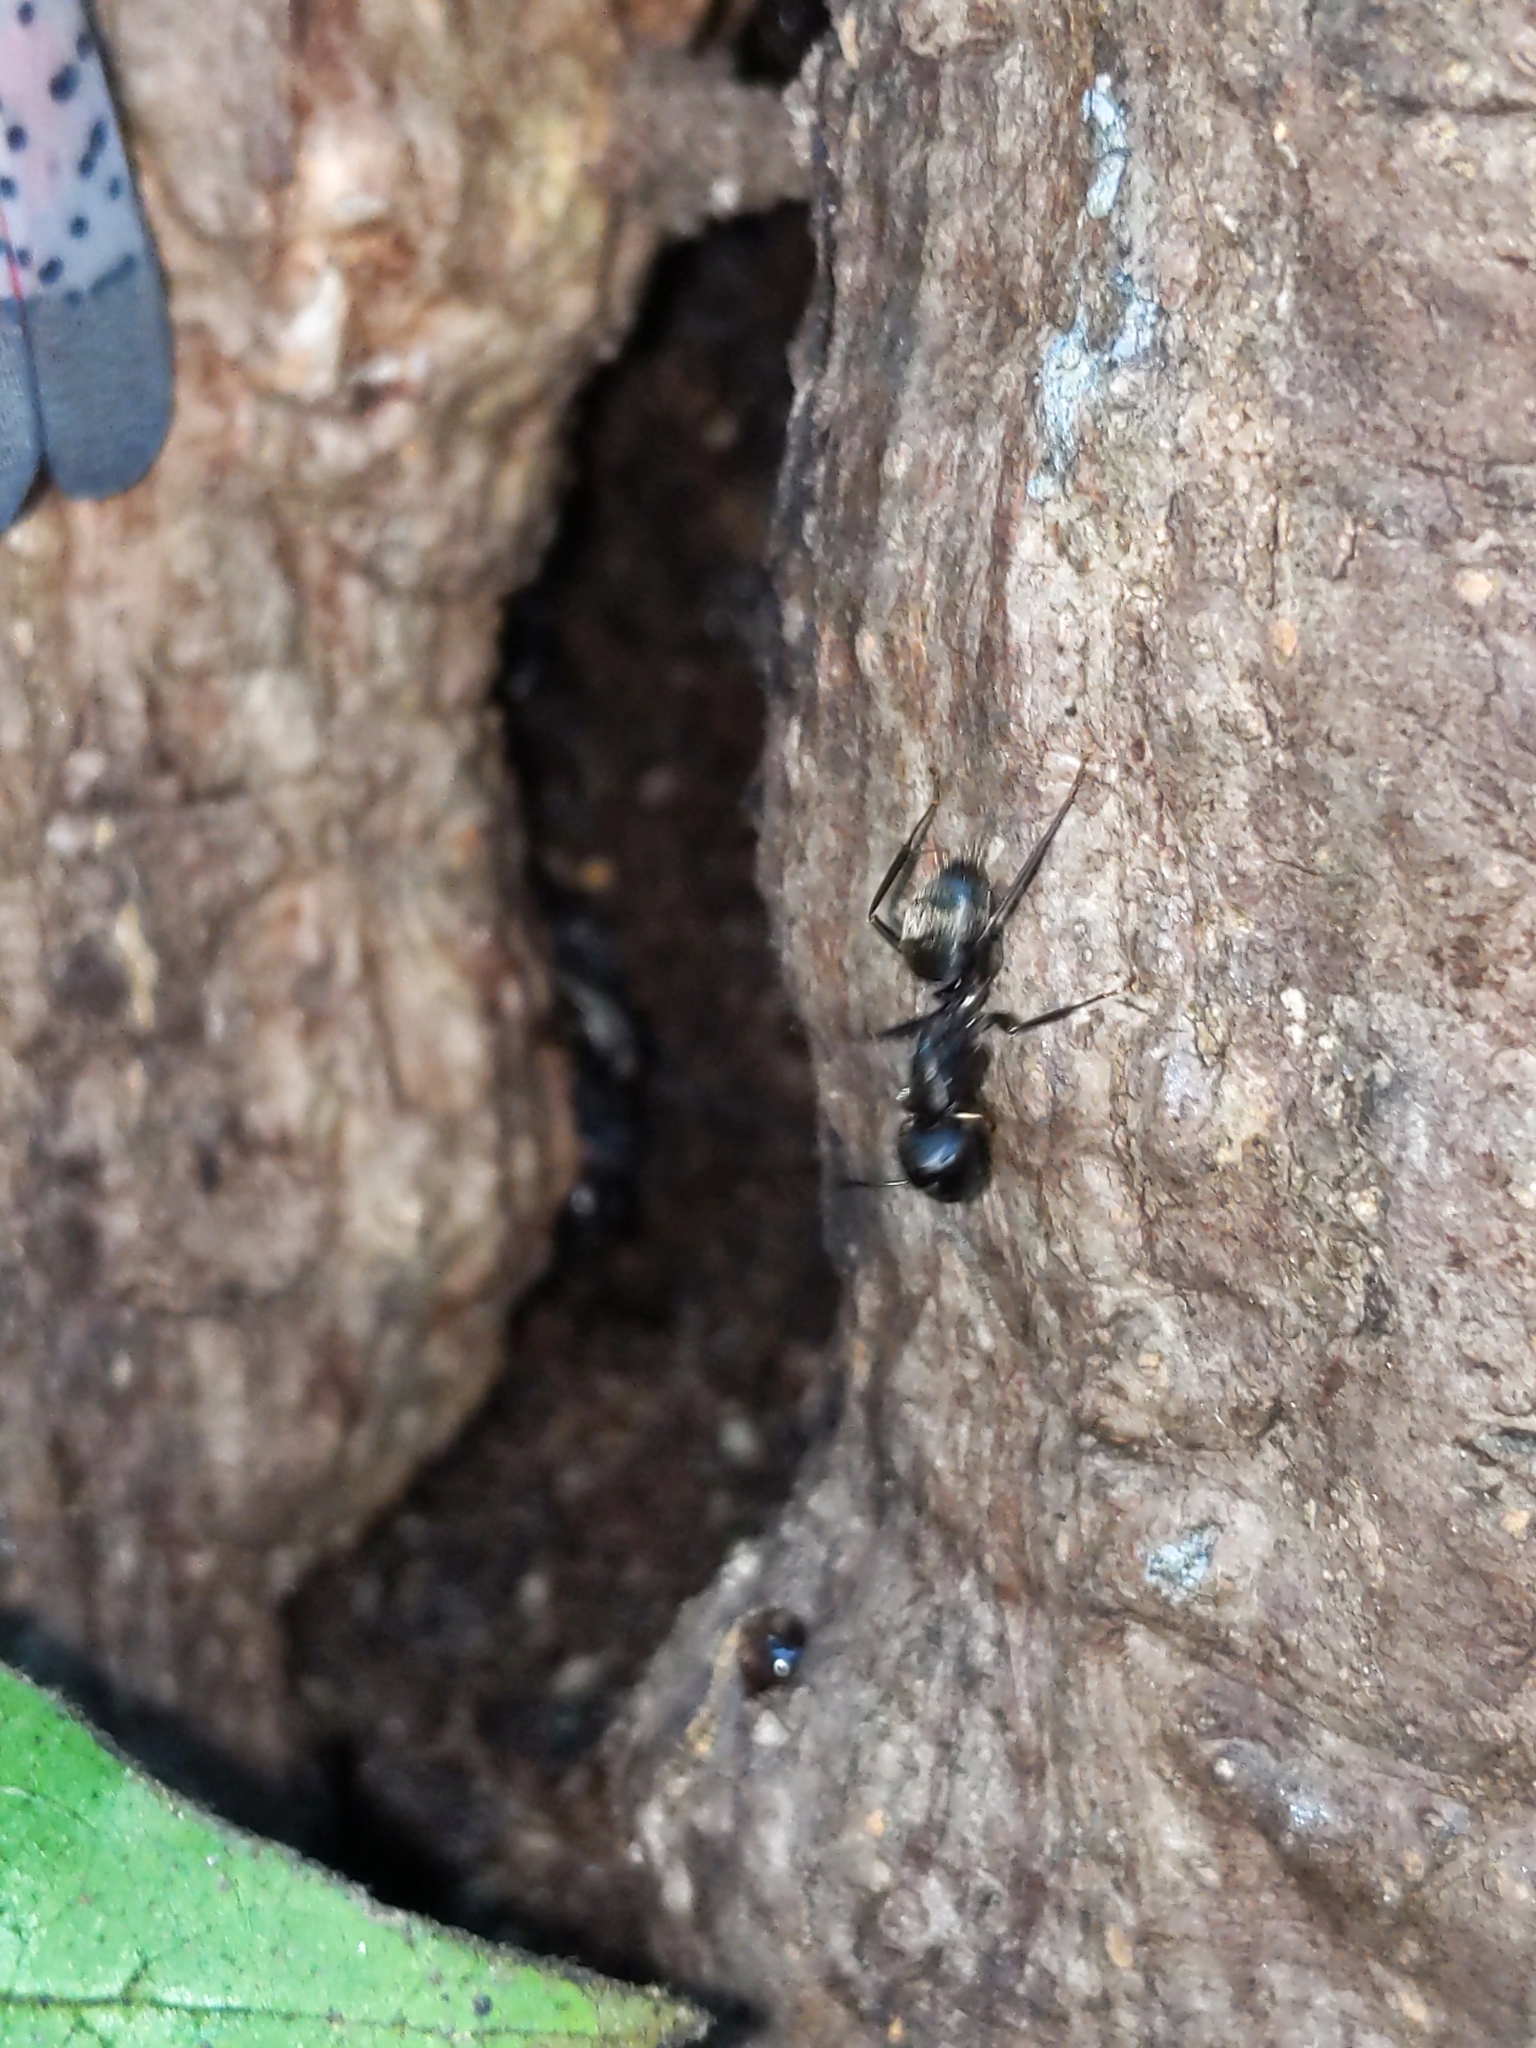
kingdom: Animalia
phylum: Arthropoda
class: Insecta
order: Hymenoptera
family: Formicidae
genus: Camponotus
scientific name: Camponotus pennsylvanicus
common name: Black carpenter ant
